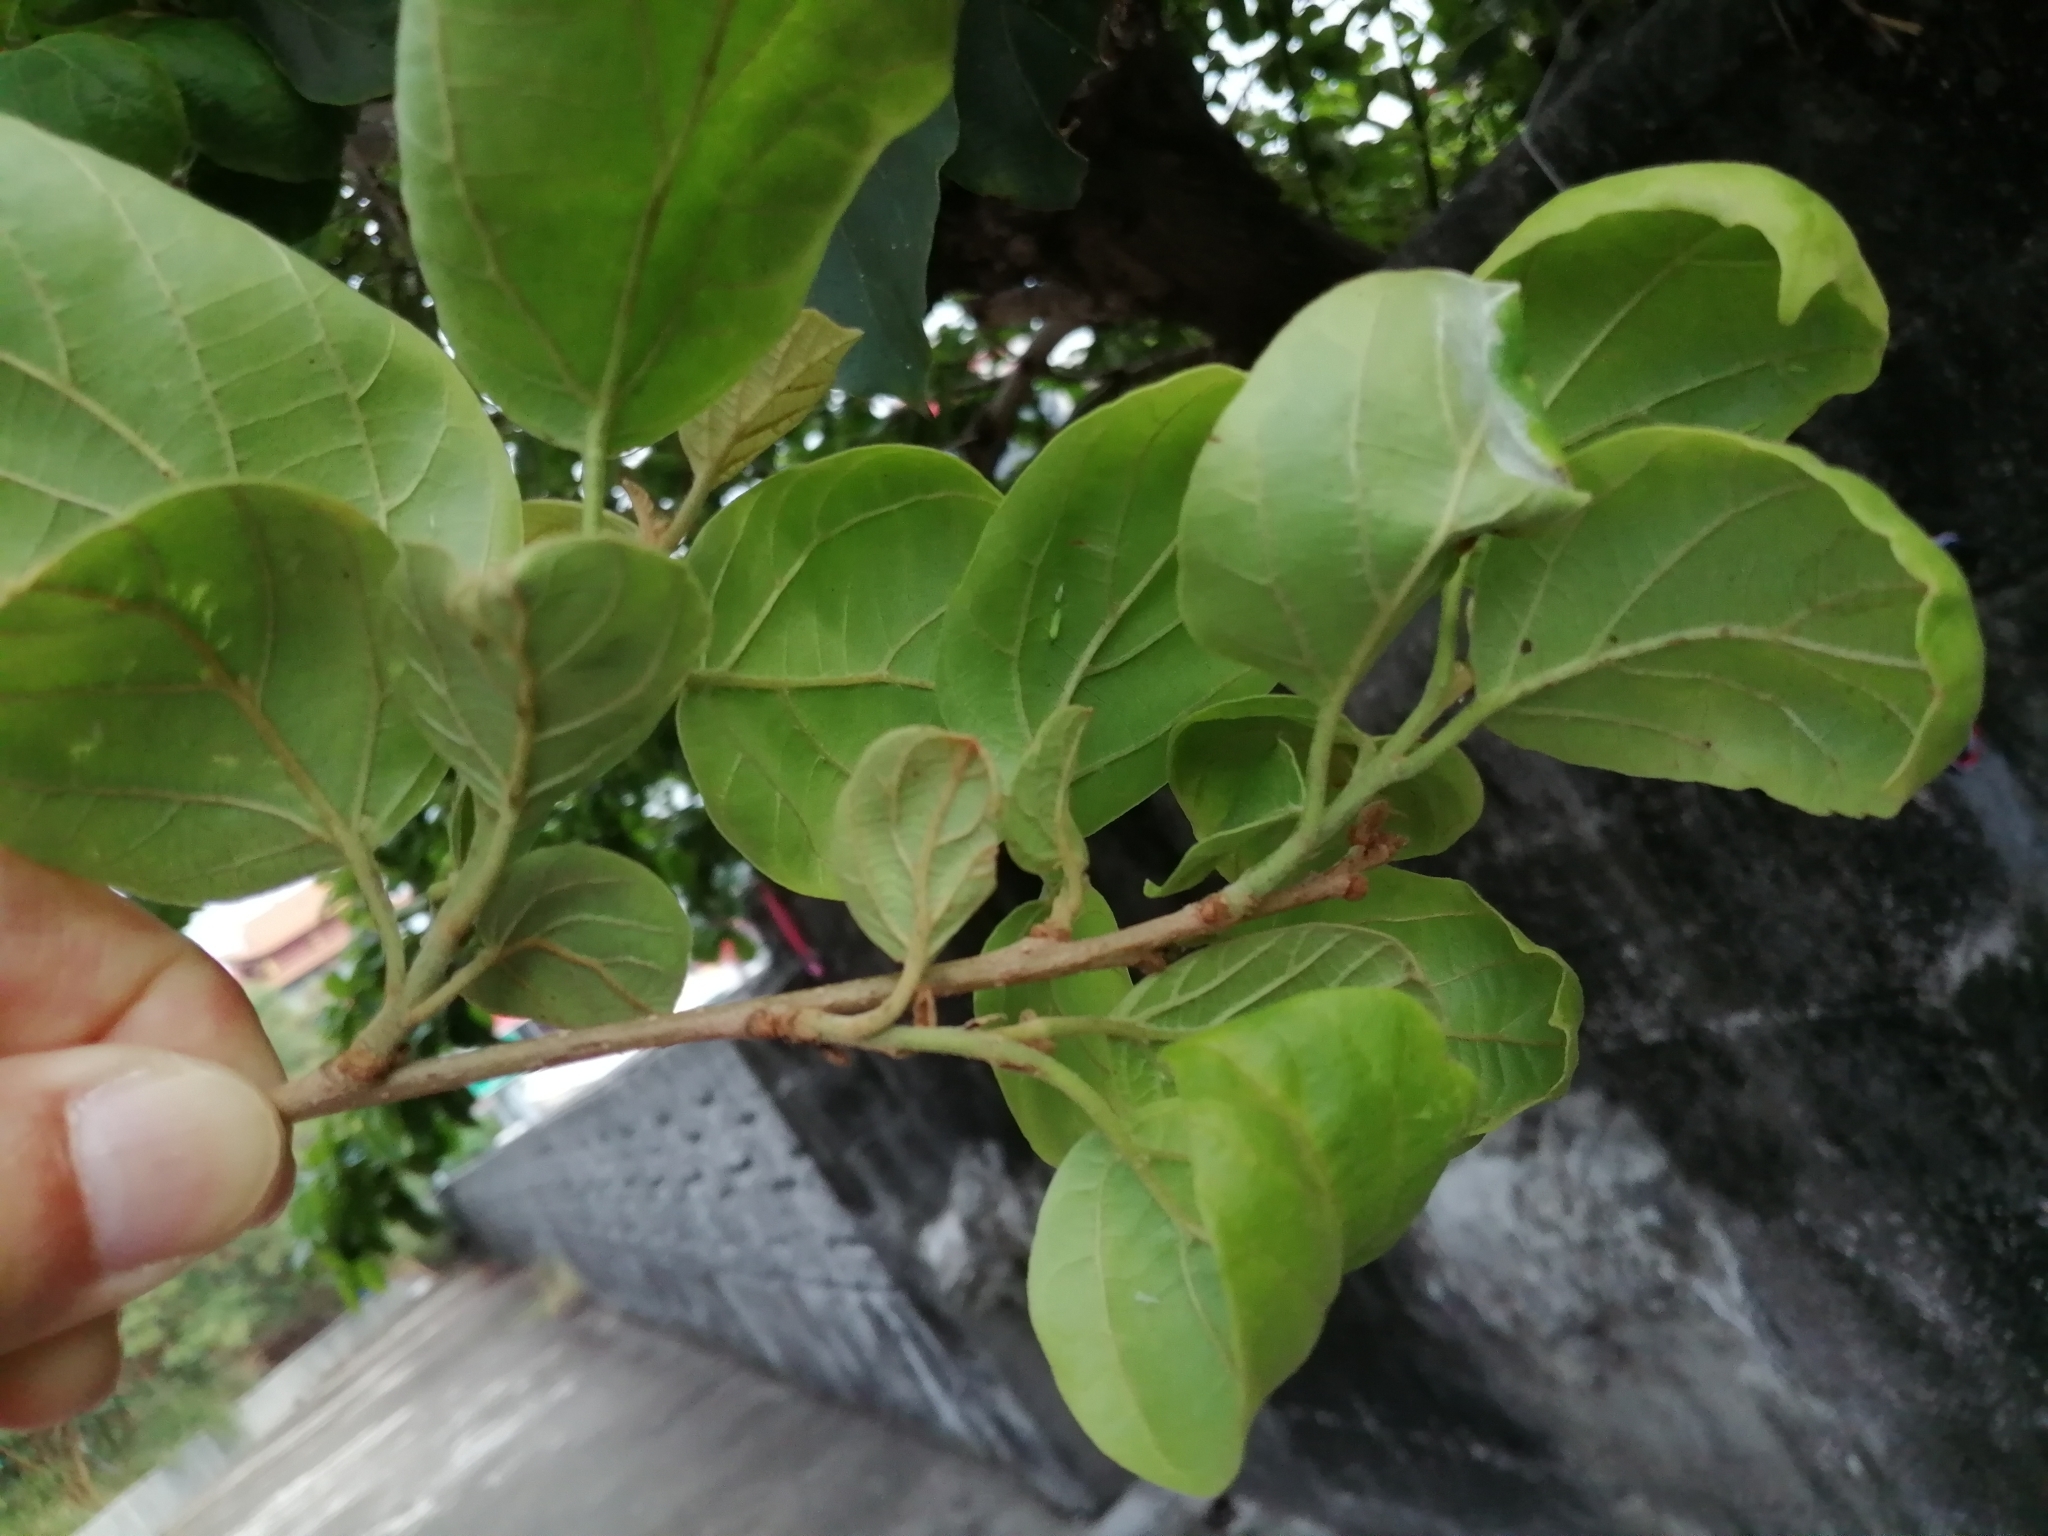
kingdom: Plantae
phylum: Tracheophyta
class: Magnoliopsida
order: Boraginales
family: Cordiaceae
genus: Cordia
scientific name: Cordia dichotoma
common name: Fragrant manjack
